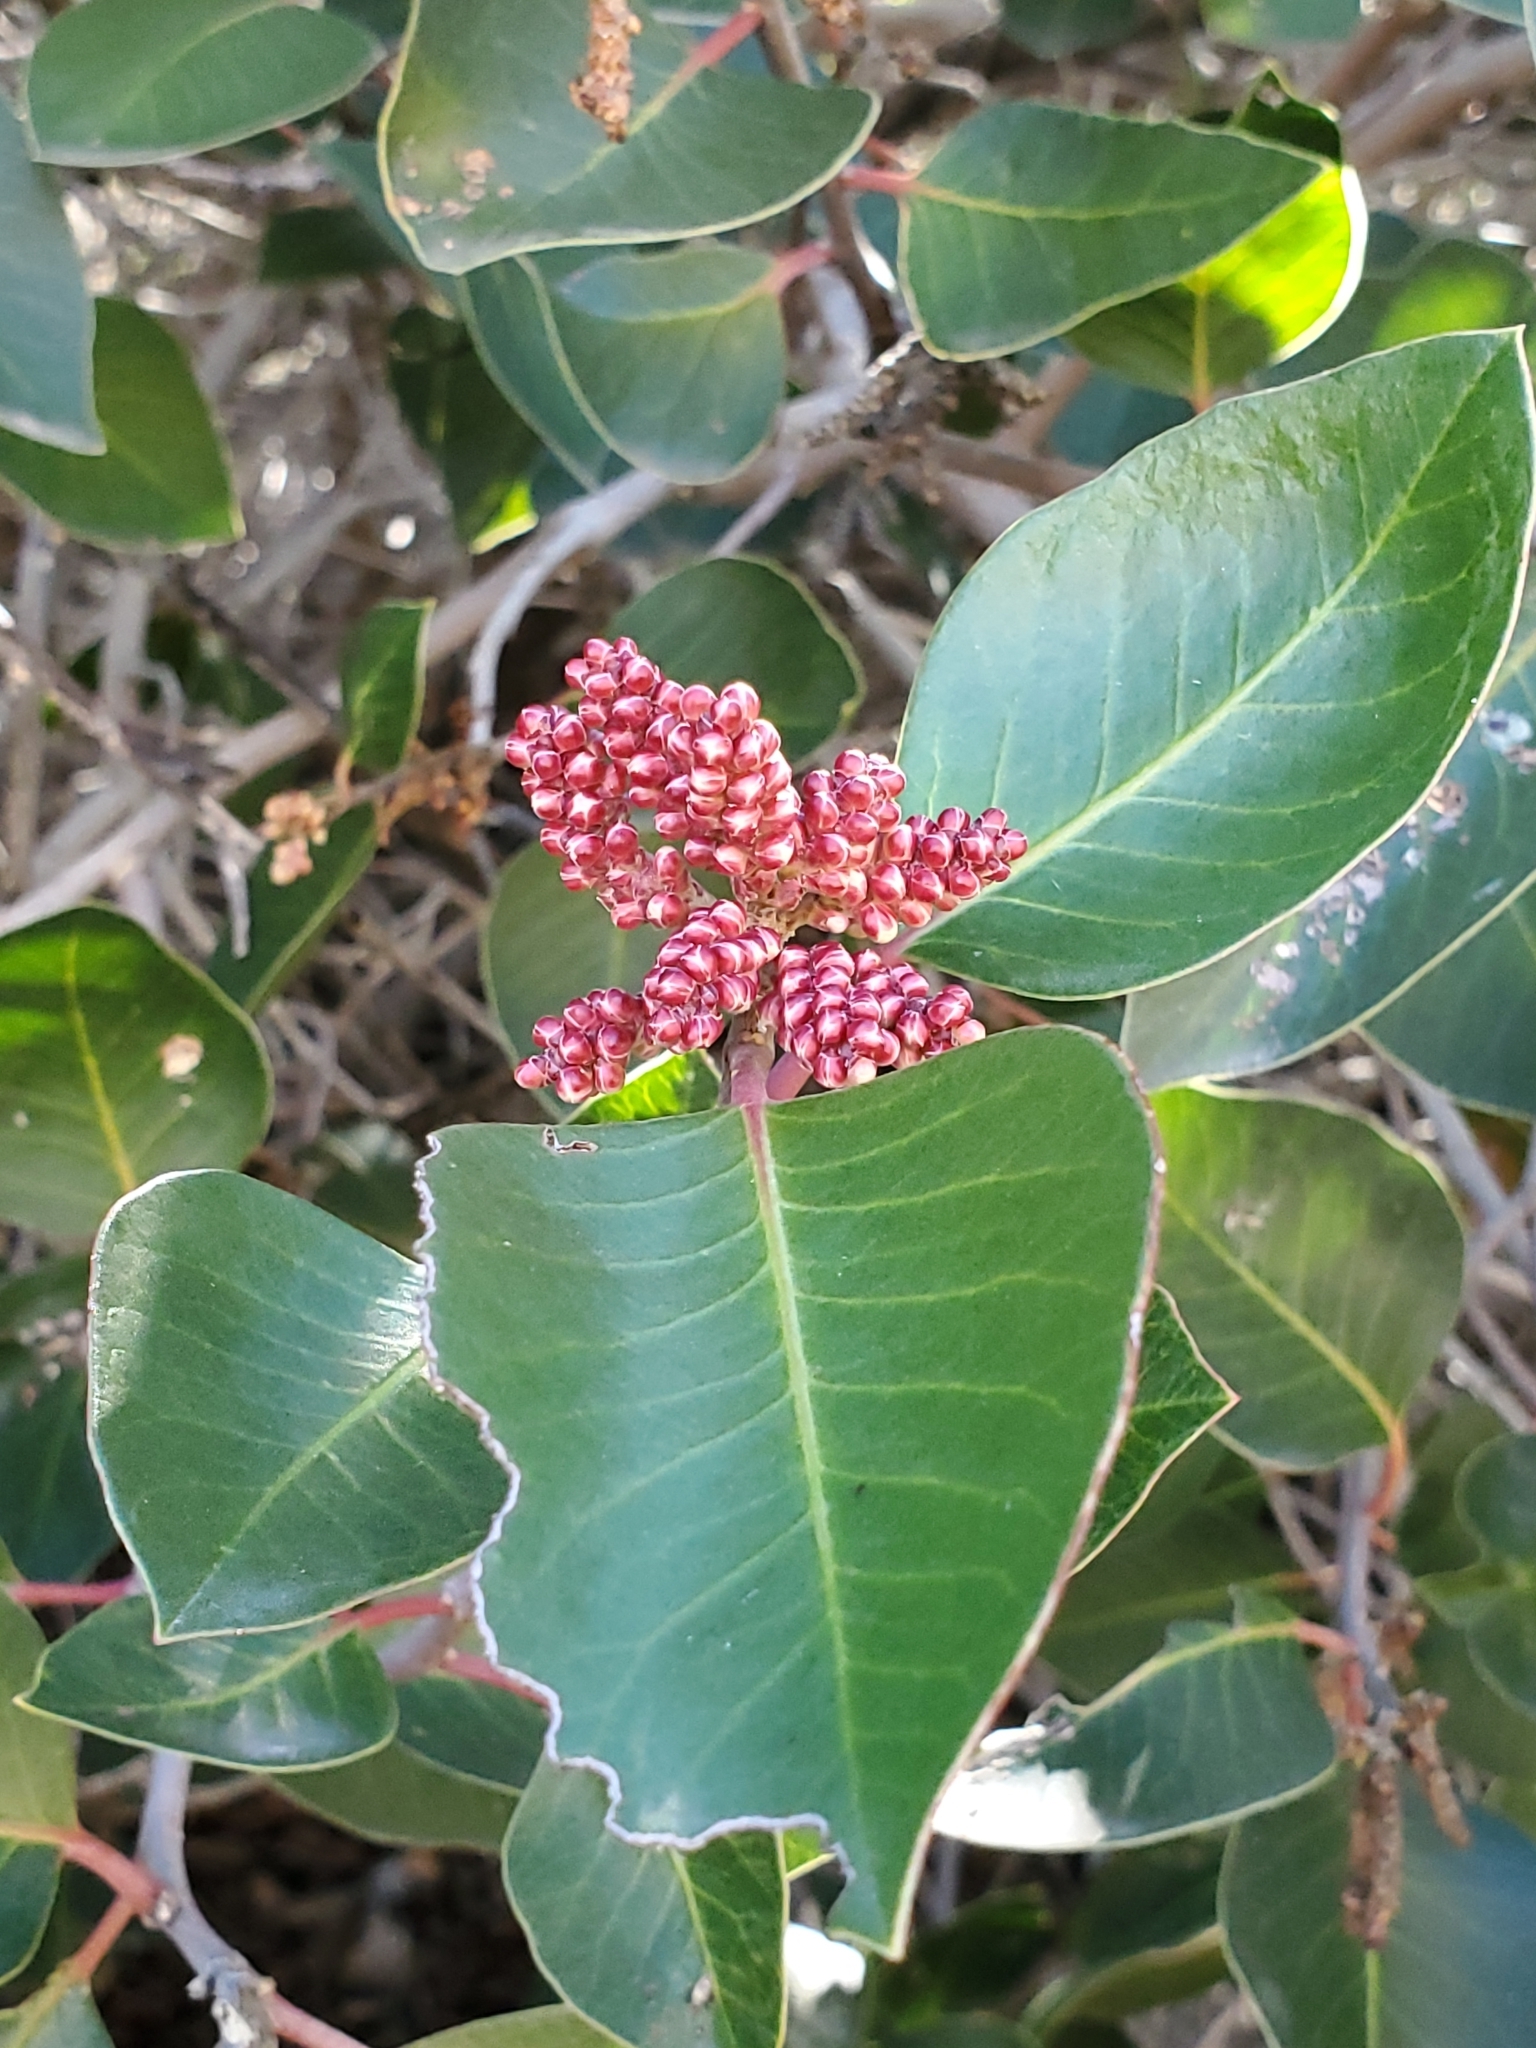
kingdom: Plantae
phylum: Tracheophyta
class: Magnoliopsida
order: Sapindales
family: Anacardiaceae
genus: Rhus
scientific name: Rhus ovata
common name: Sugar sumac
